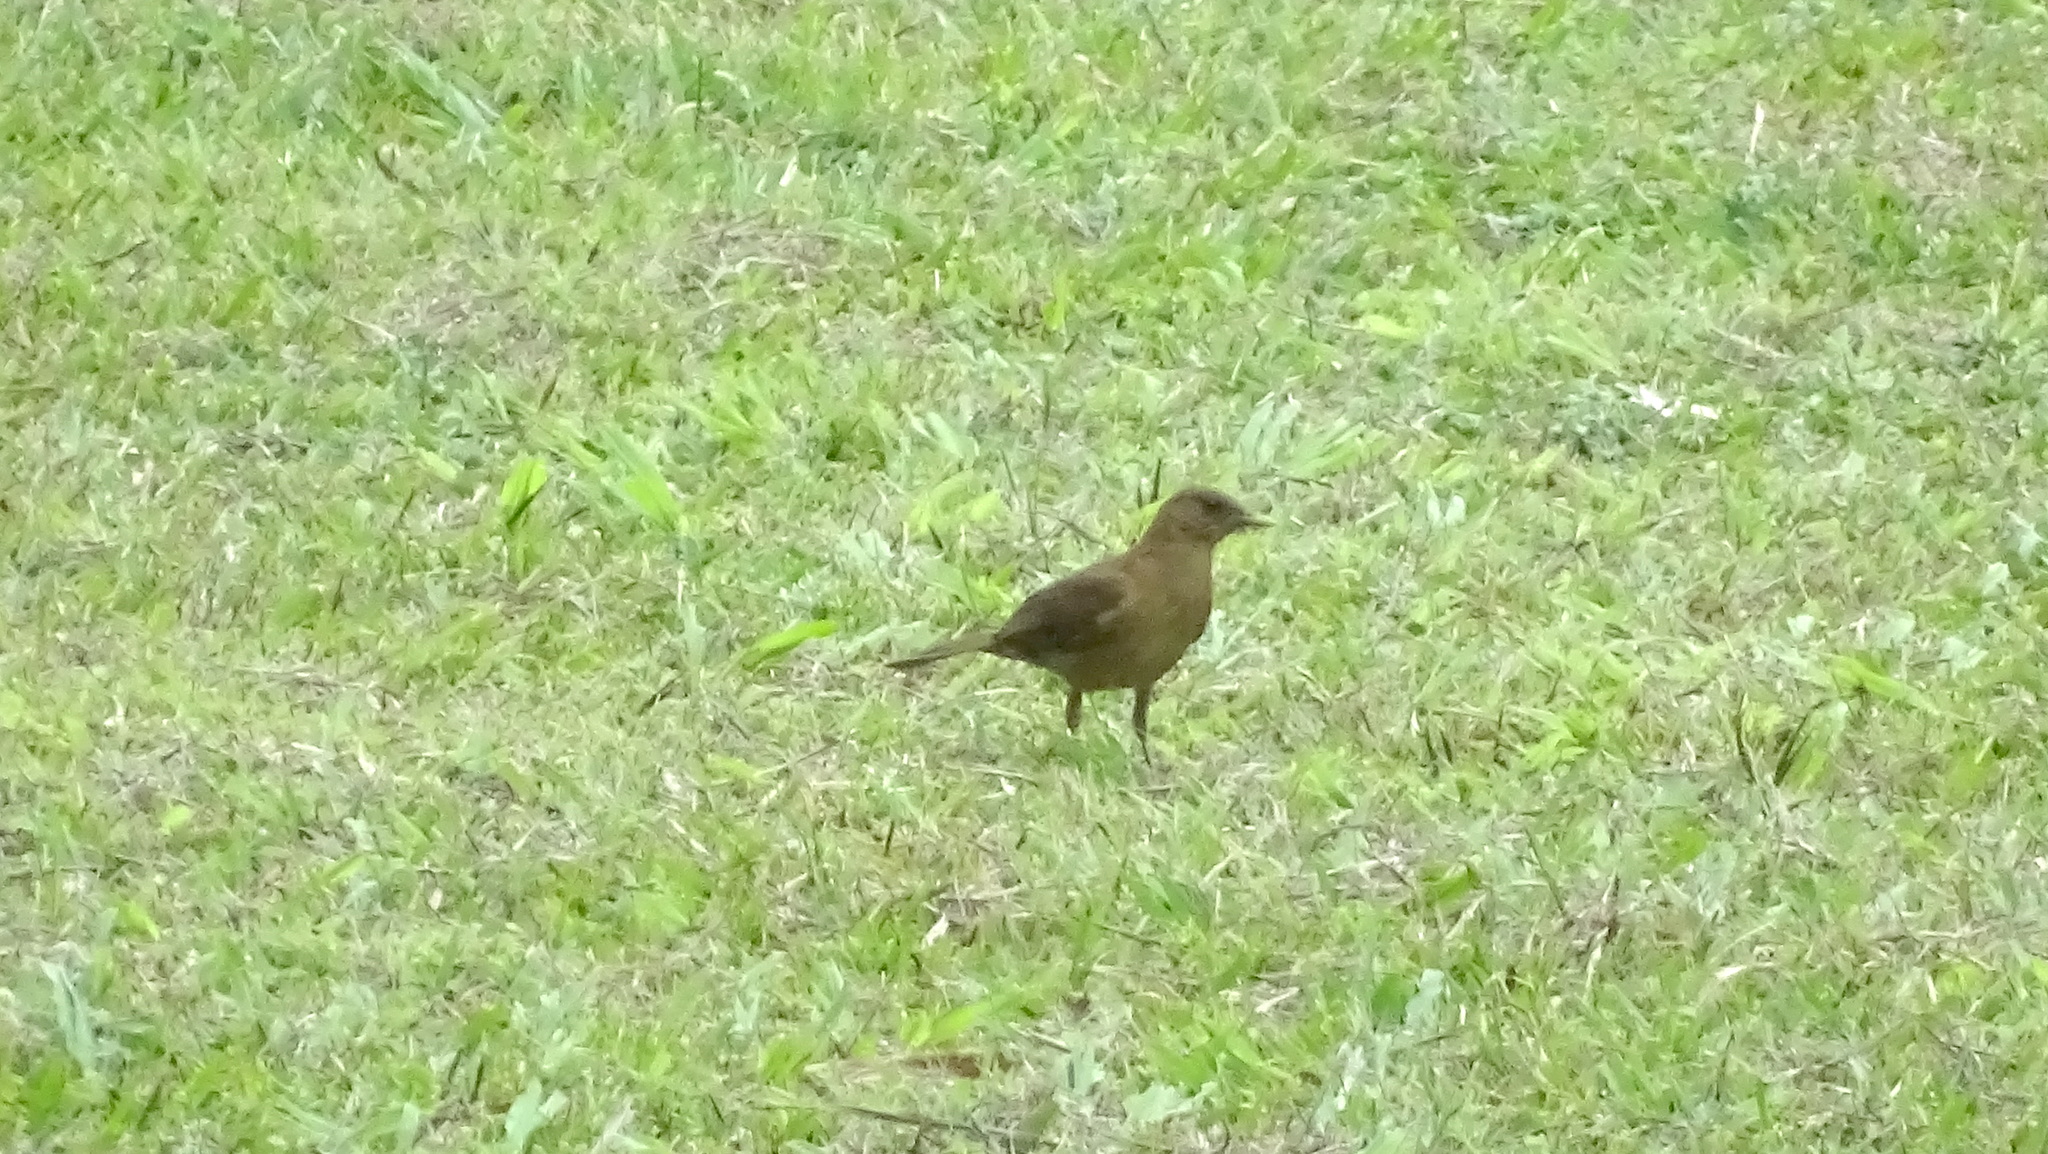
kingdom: Animalia
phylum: Chordata
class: Aves
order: Passeriformes
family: Turdidae
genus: Turdus
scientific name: Turdus grayi
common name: Clay-colored thrush
